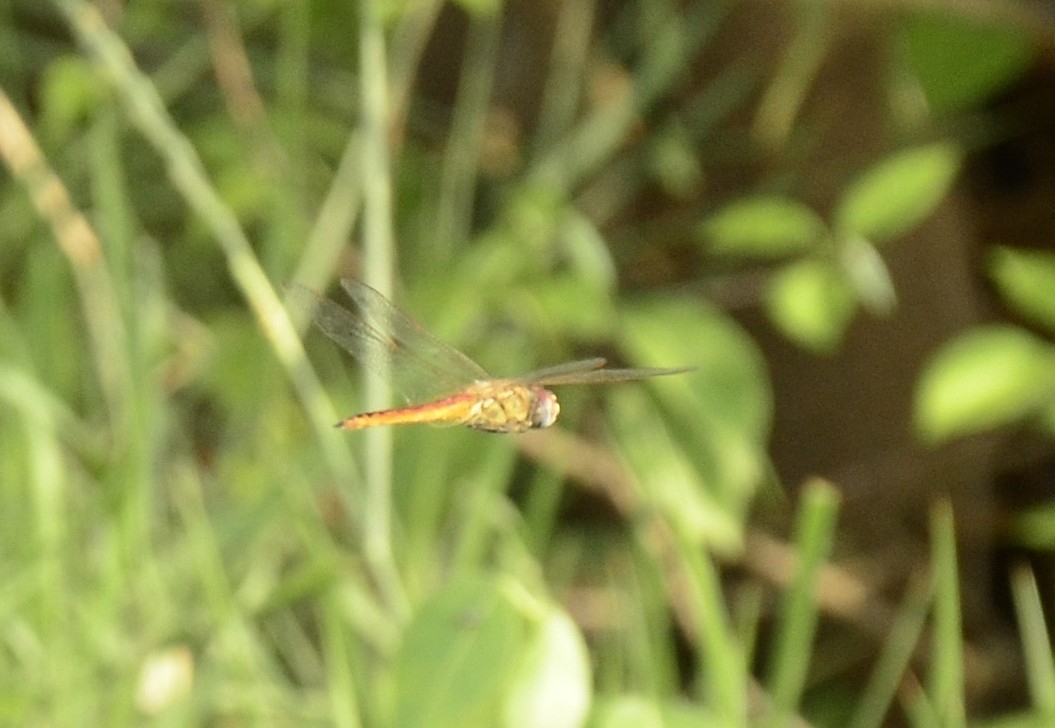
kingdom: Animalia
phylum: Arthropoda
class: Insecta
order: Odonata
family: Libellulidae
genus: Pantala
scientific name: Pantala flavescens
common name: Wandering glider
